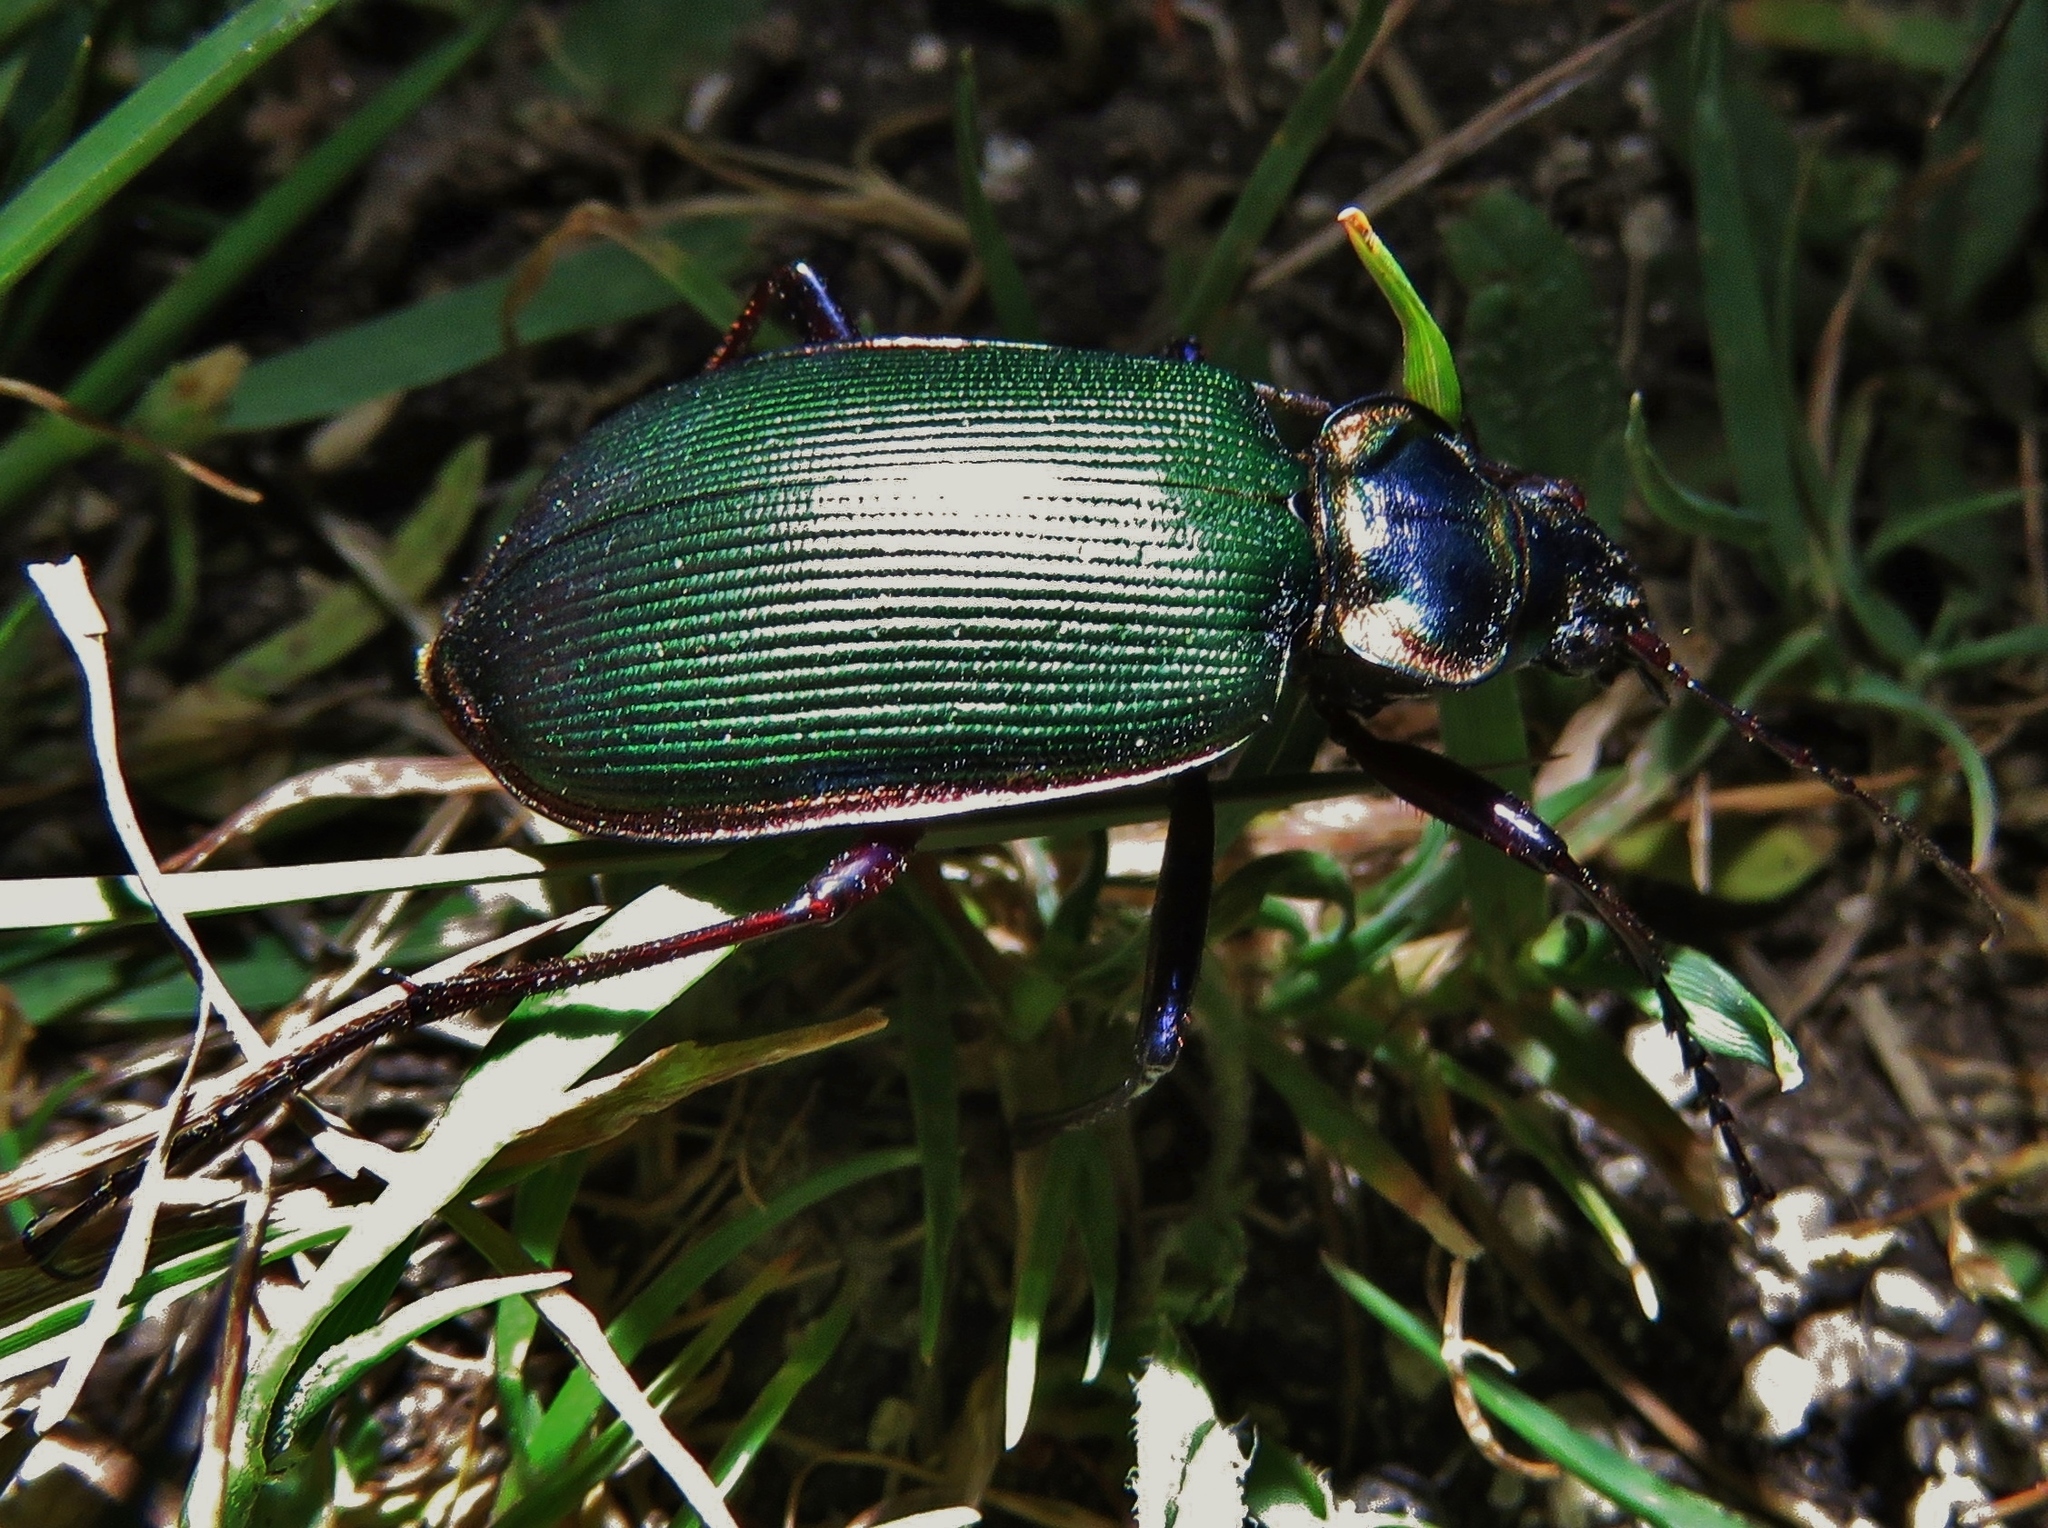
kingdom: Animalia
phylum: Arthropoda
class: Insecta
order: Coleoptera
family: Carabidae
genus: Calosoma
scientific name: Calosoma scrutator
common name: Fiery searcher beetle
